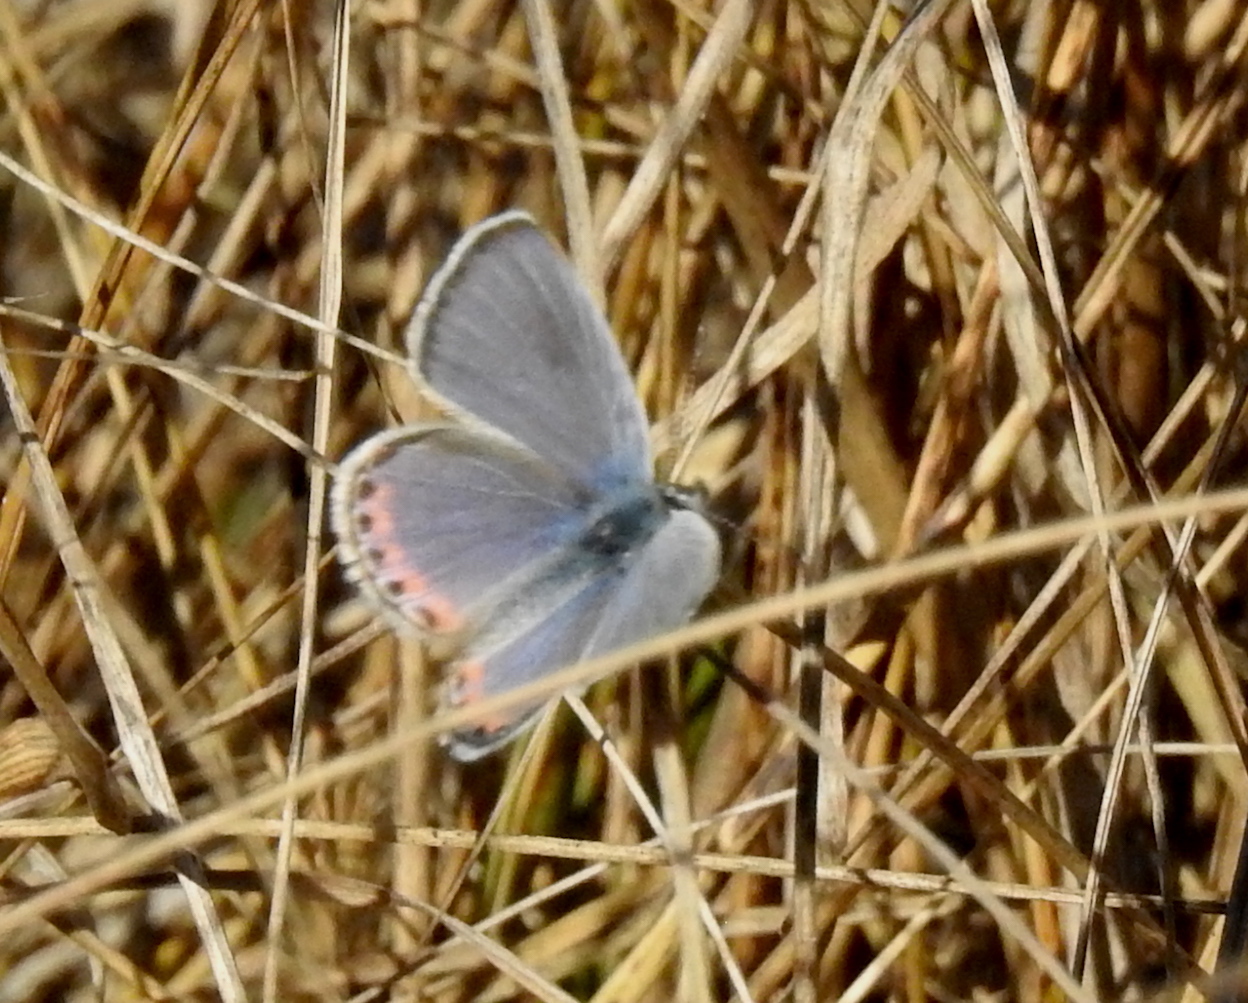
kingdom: Animalia
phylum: Arthropoda
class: Insecta
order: Lepidoptera
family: Lycaenidae
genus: Icaricia
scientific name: Icaricia acmon
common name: Acmon blue
